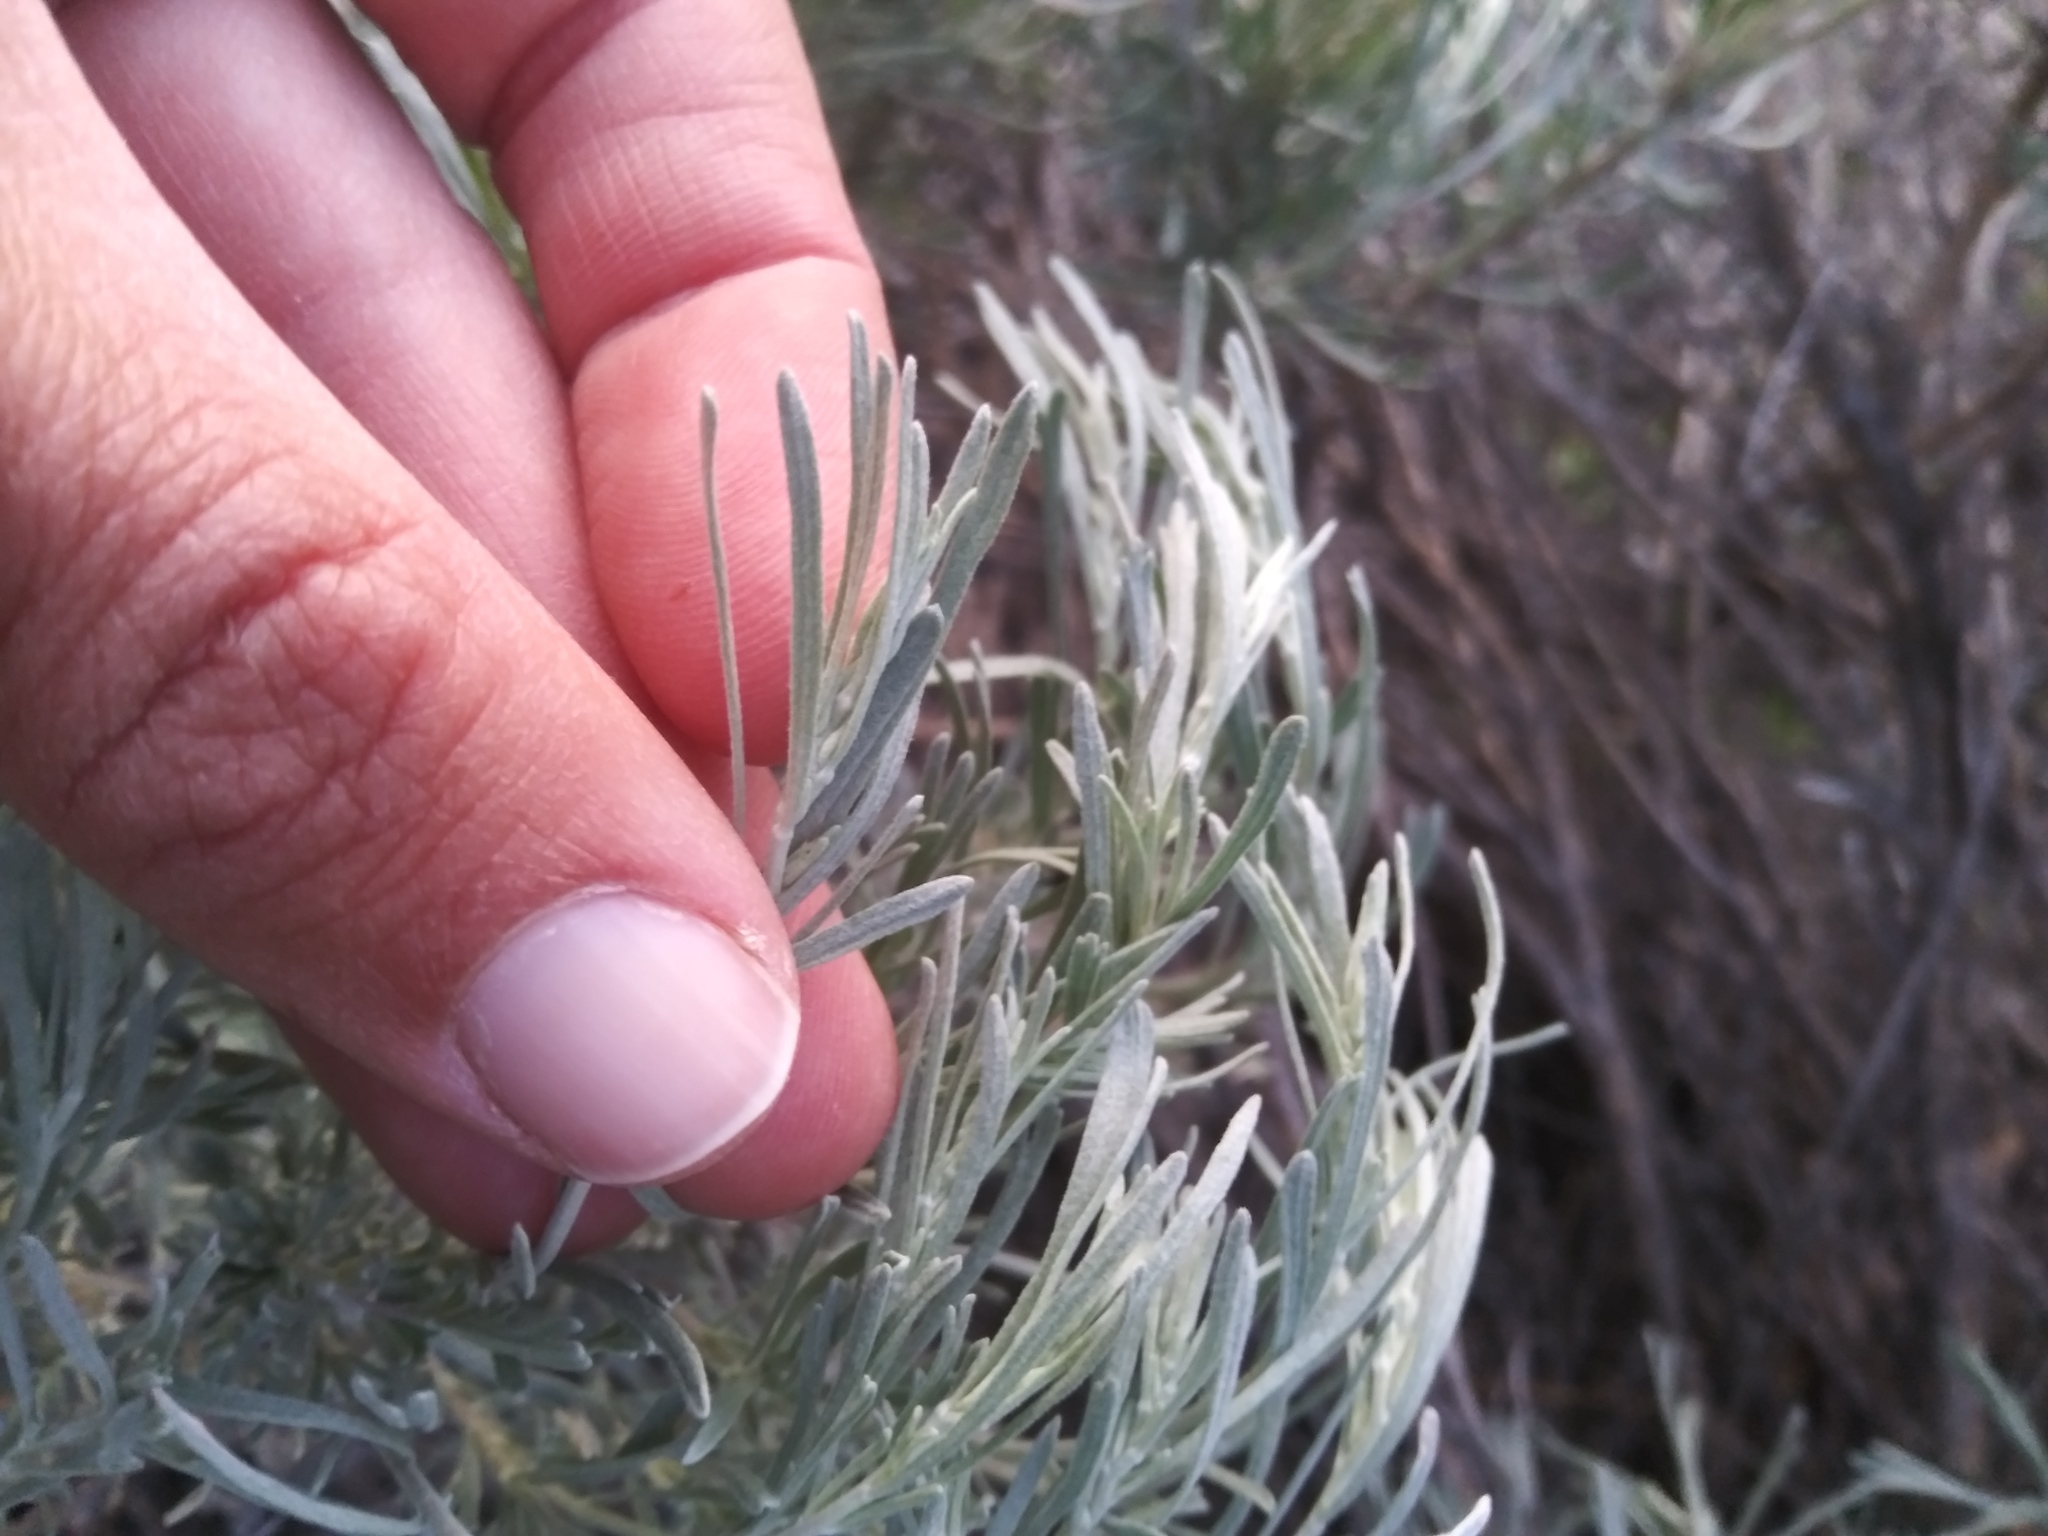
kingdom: Plantae
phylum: Tracheophyta
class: Magnoliopsida
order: Asterales
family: Asteraceae
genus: Artemisia
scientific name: Artemisia tripartita
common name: Three-tip sagebrush
